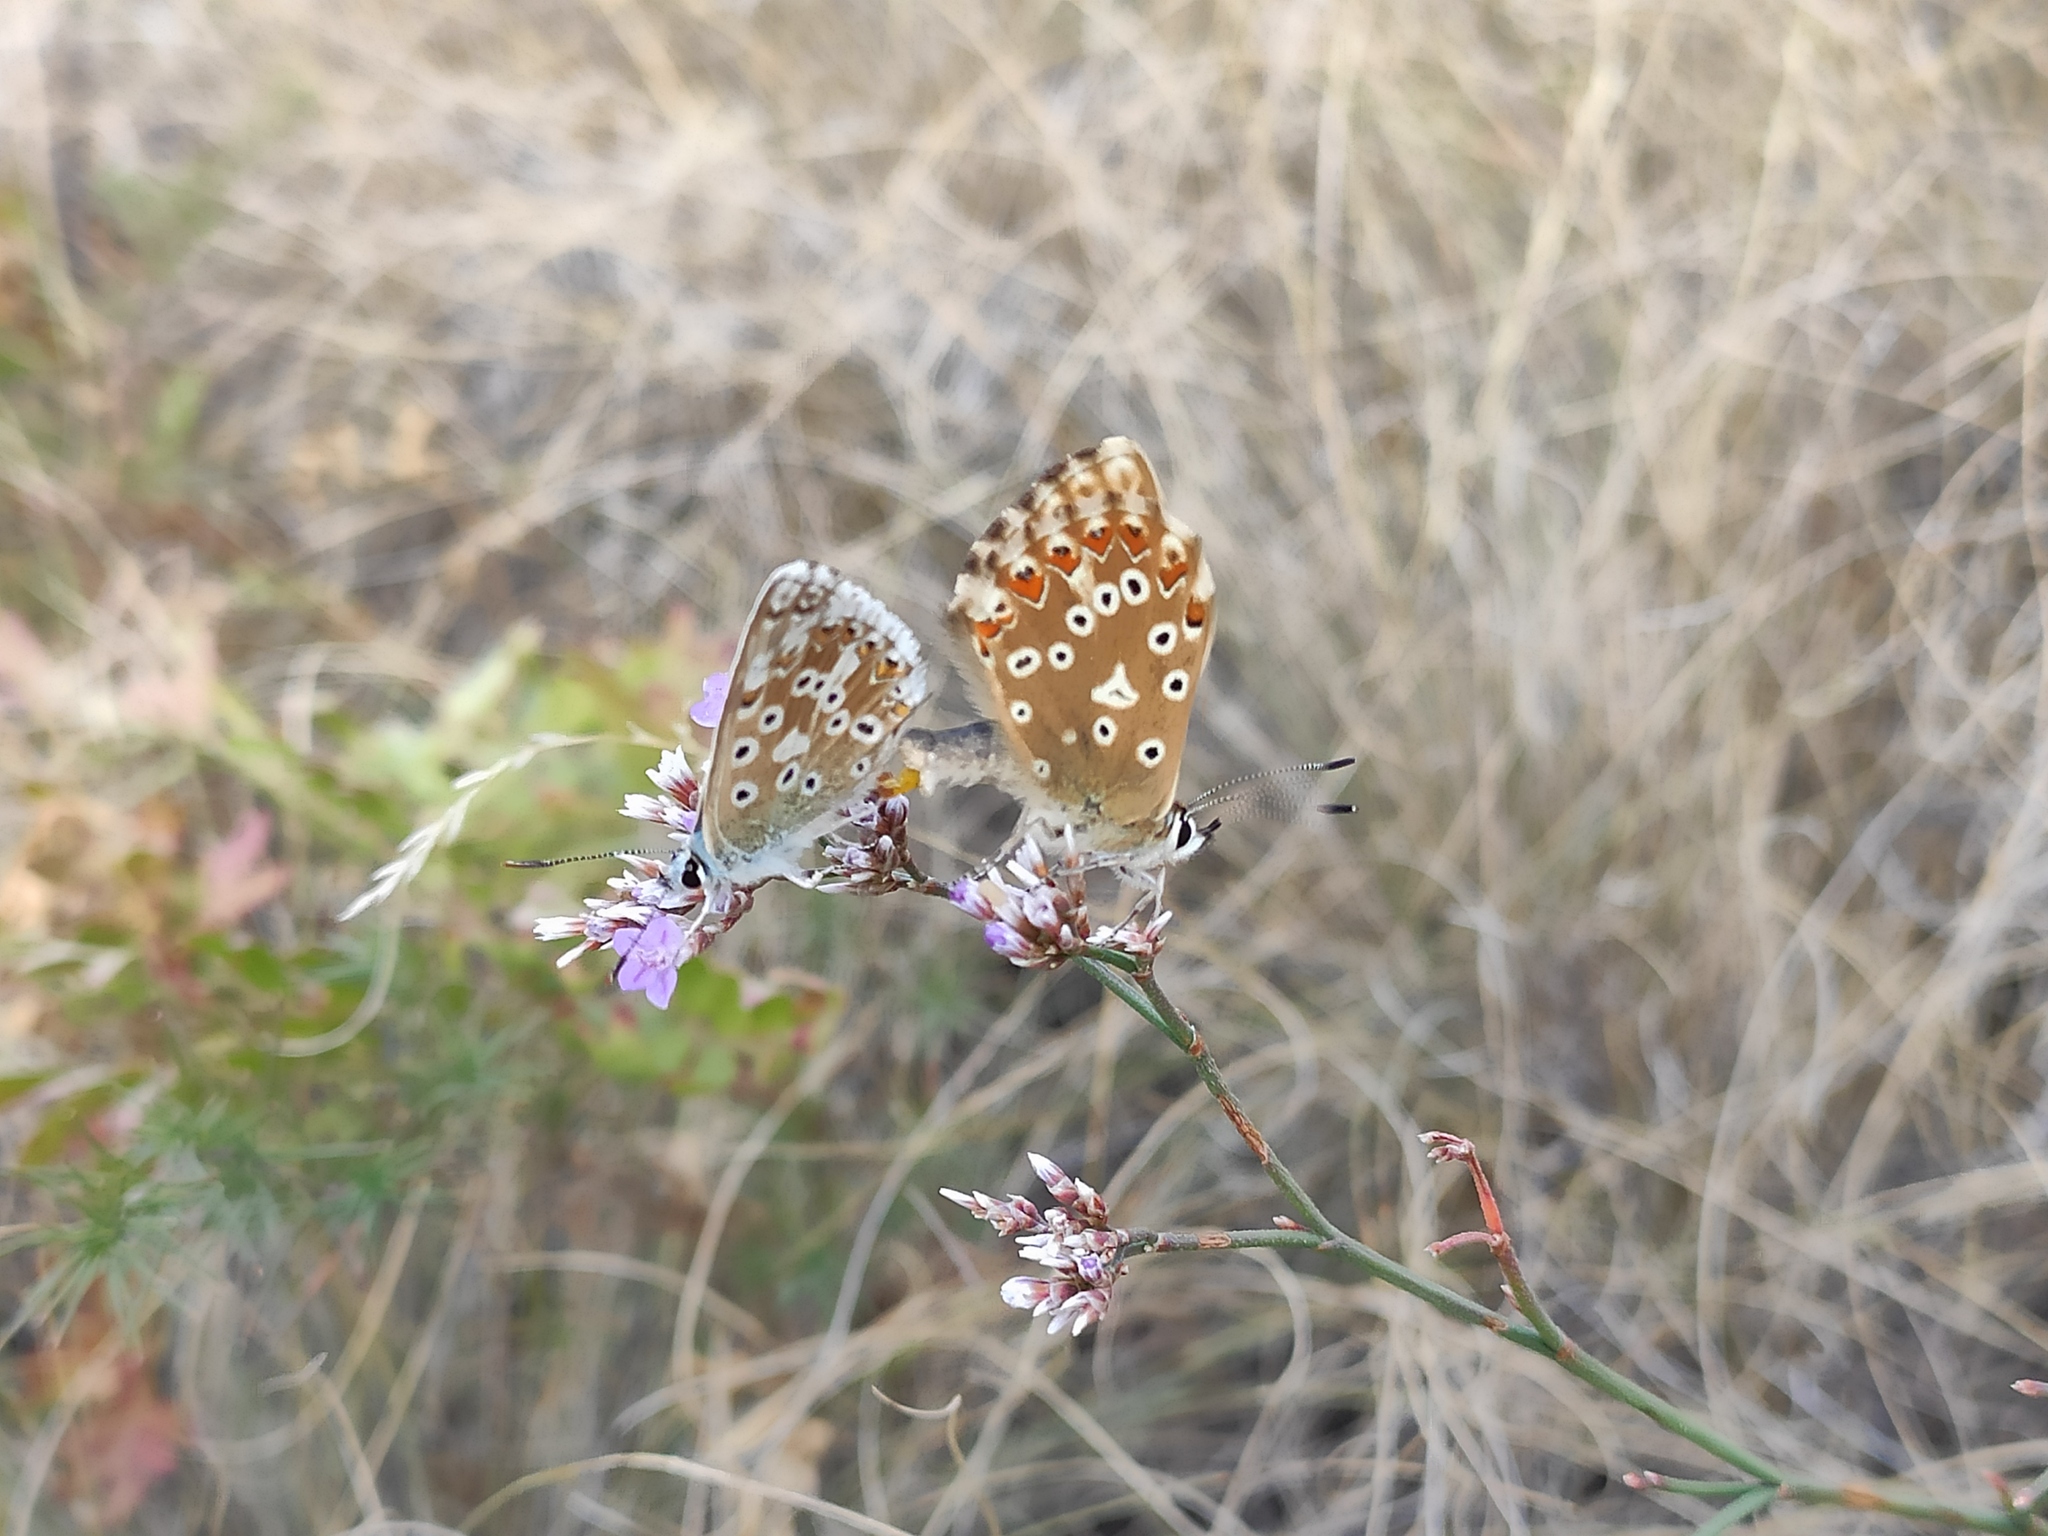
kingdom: Animalia
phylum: Arthropoda
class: Insecta
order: Lepidoptera
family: Lycaenidae
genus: Lysandra
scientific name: Lysandra coridon
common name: Chalkhill blue
